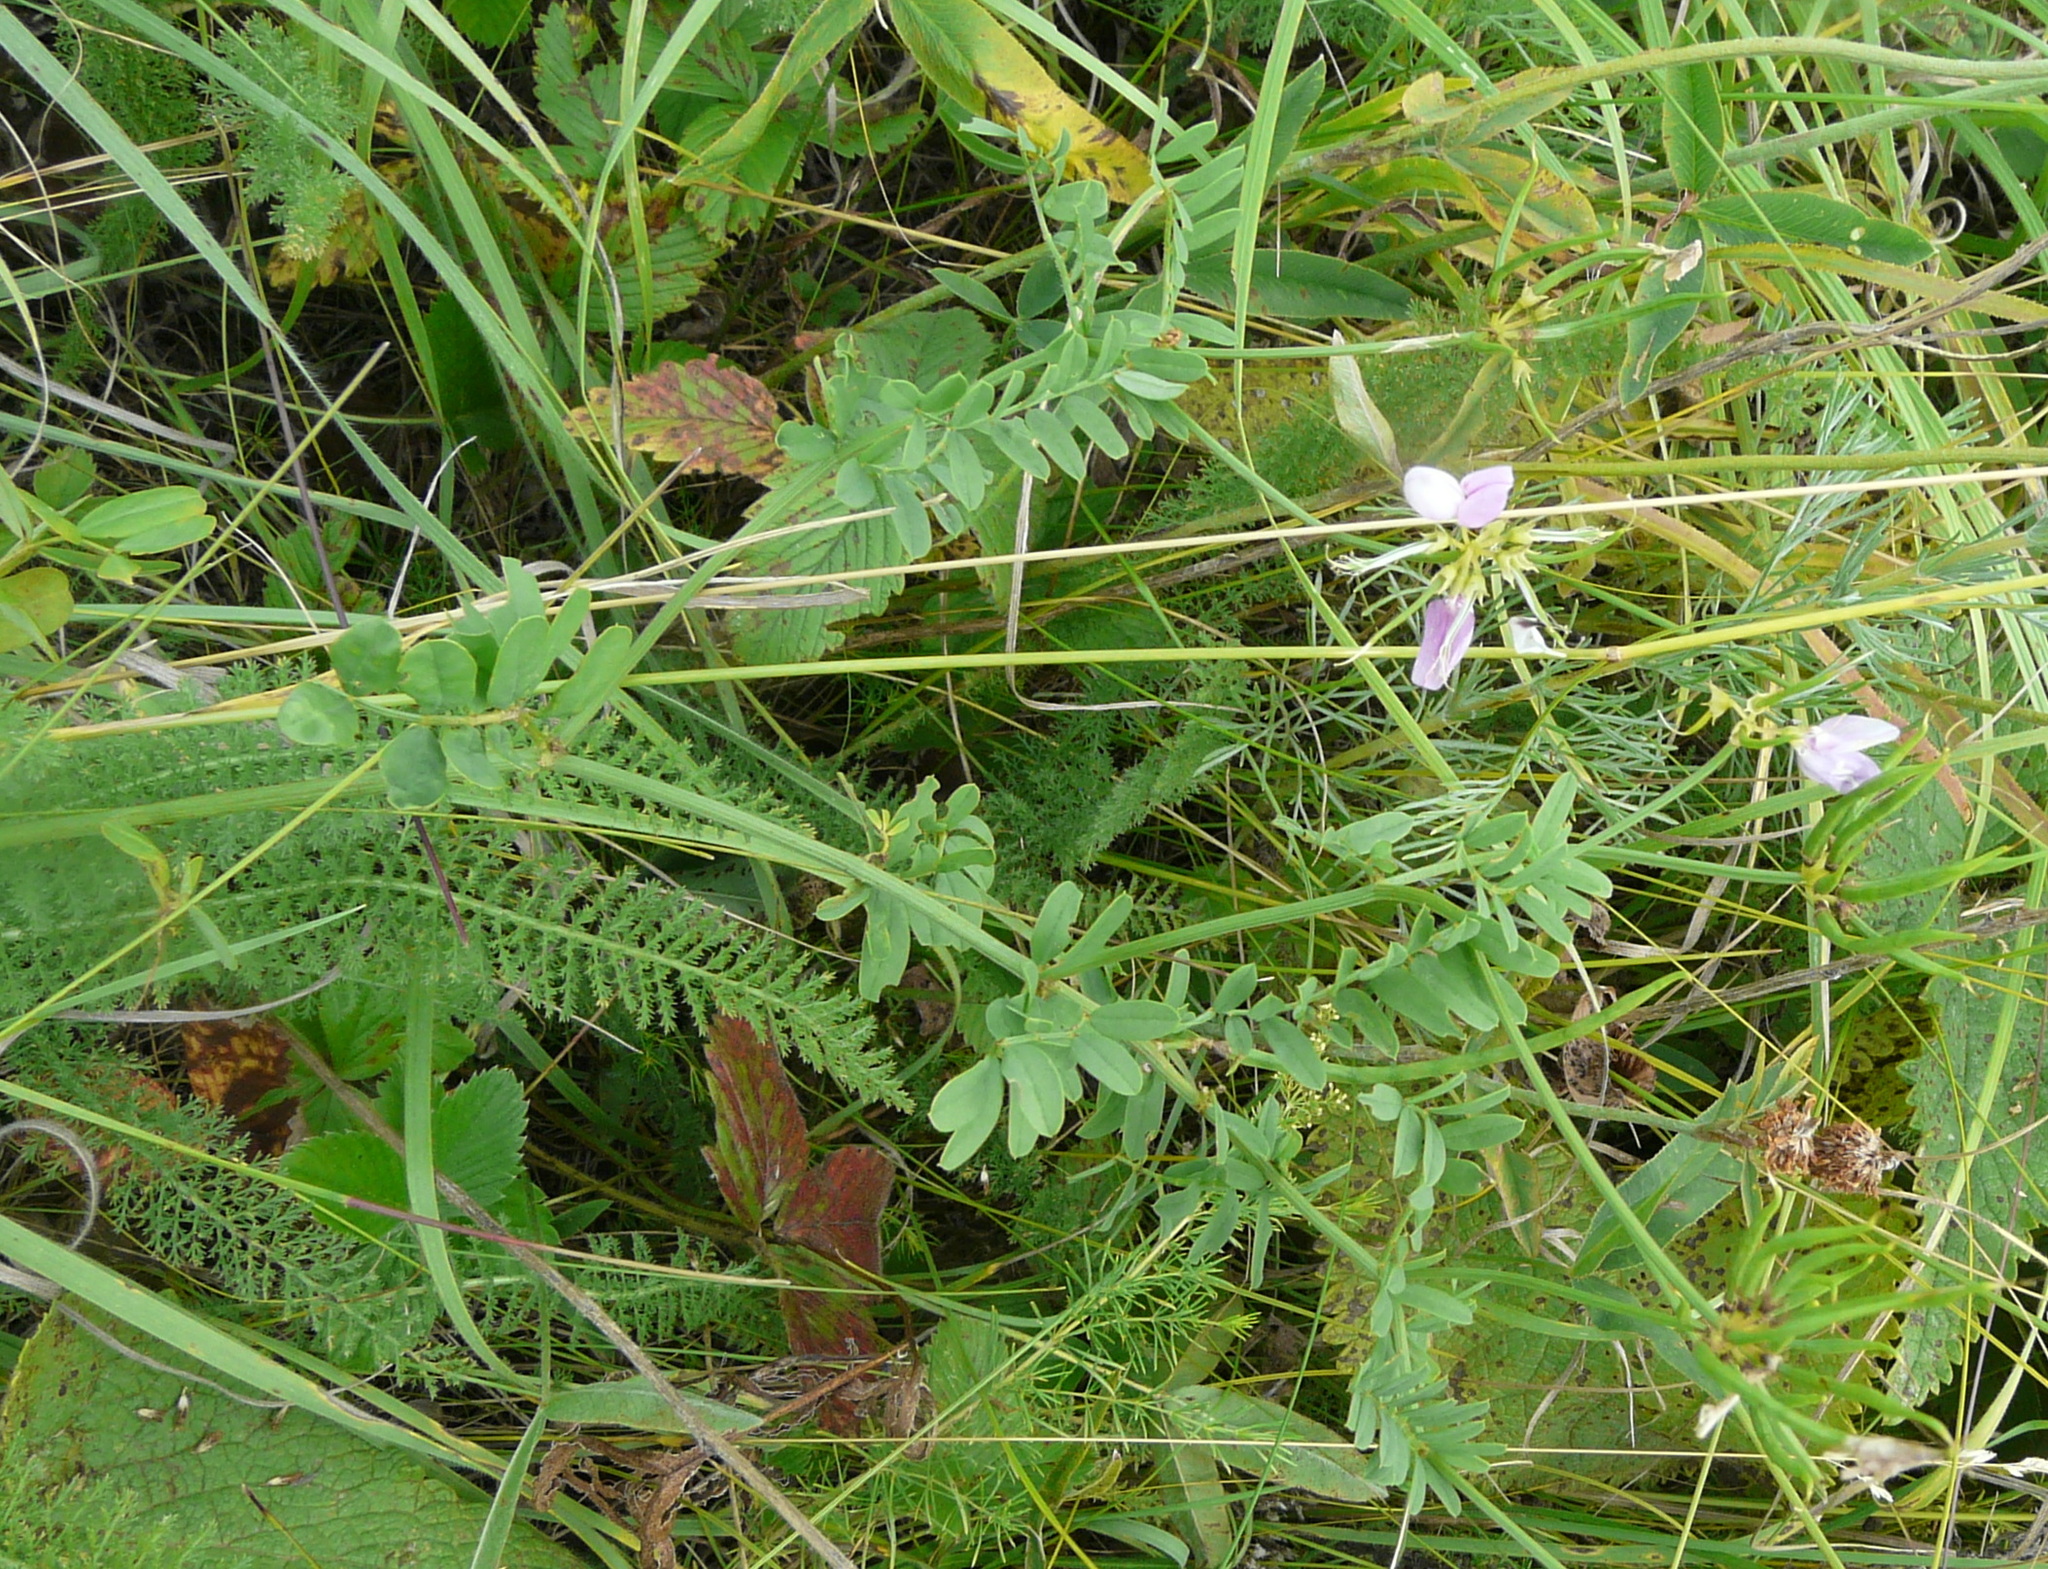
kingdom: Plantae
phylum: Tracheophyta
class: Magnoliopsida
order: Fabales
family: Fabaceae
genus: Coronilla
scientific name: Coronilla varia
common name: Crownvetch
